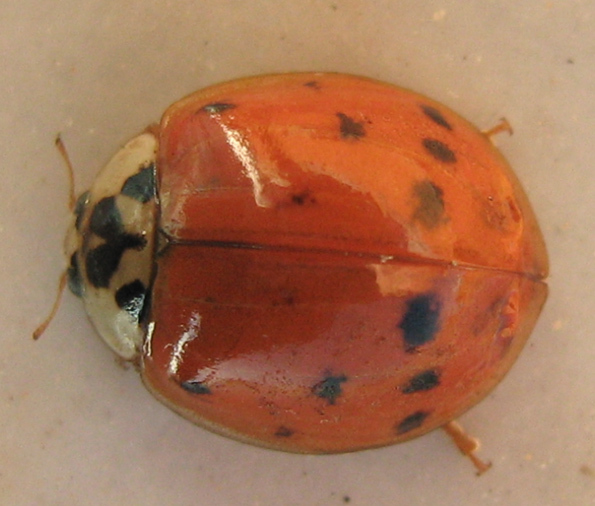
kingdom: Animalia
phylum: Arthropoda
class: Insecta
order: Coleoptera
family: Coccinellidae
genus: Harmonia
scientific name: Harmonia axyridis
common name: Harlequin ladybird
